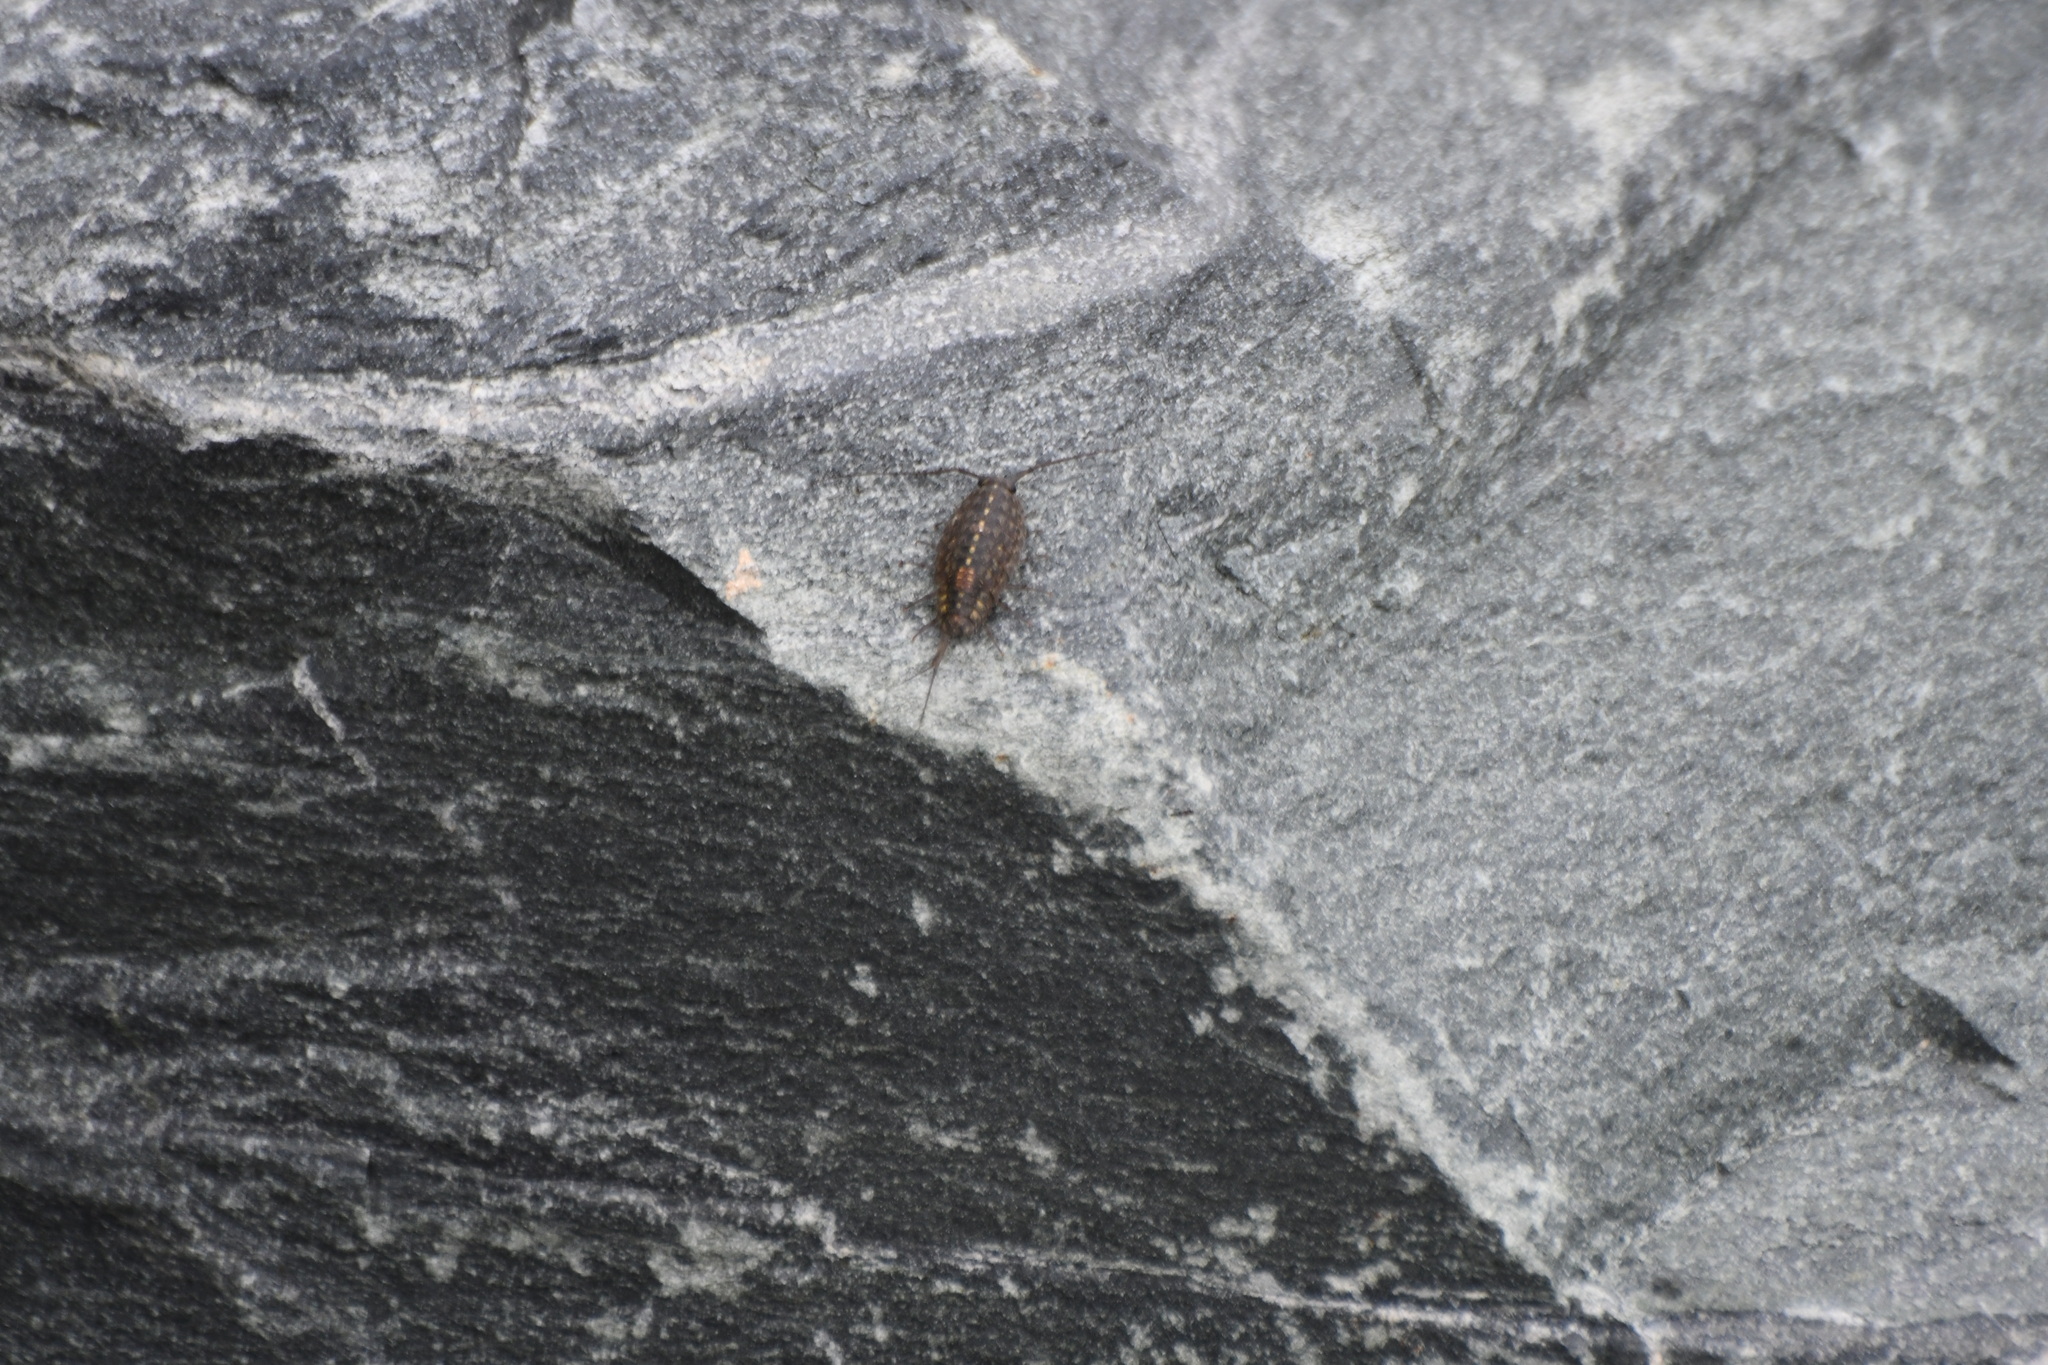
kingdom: Animalia
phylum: Arthropoda
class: Malacostraca
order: Isopoda
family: Ligiidae
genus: Ligia
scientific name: Ligia exotica
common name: Wharf roach
